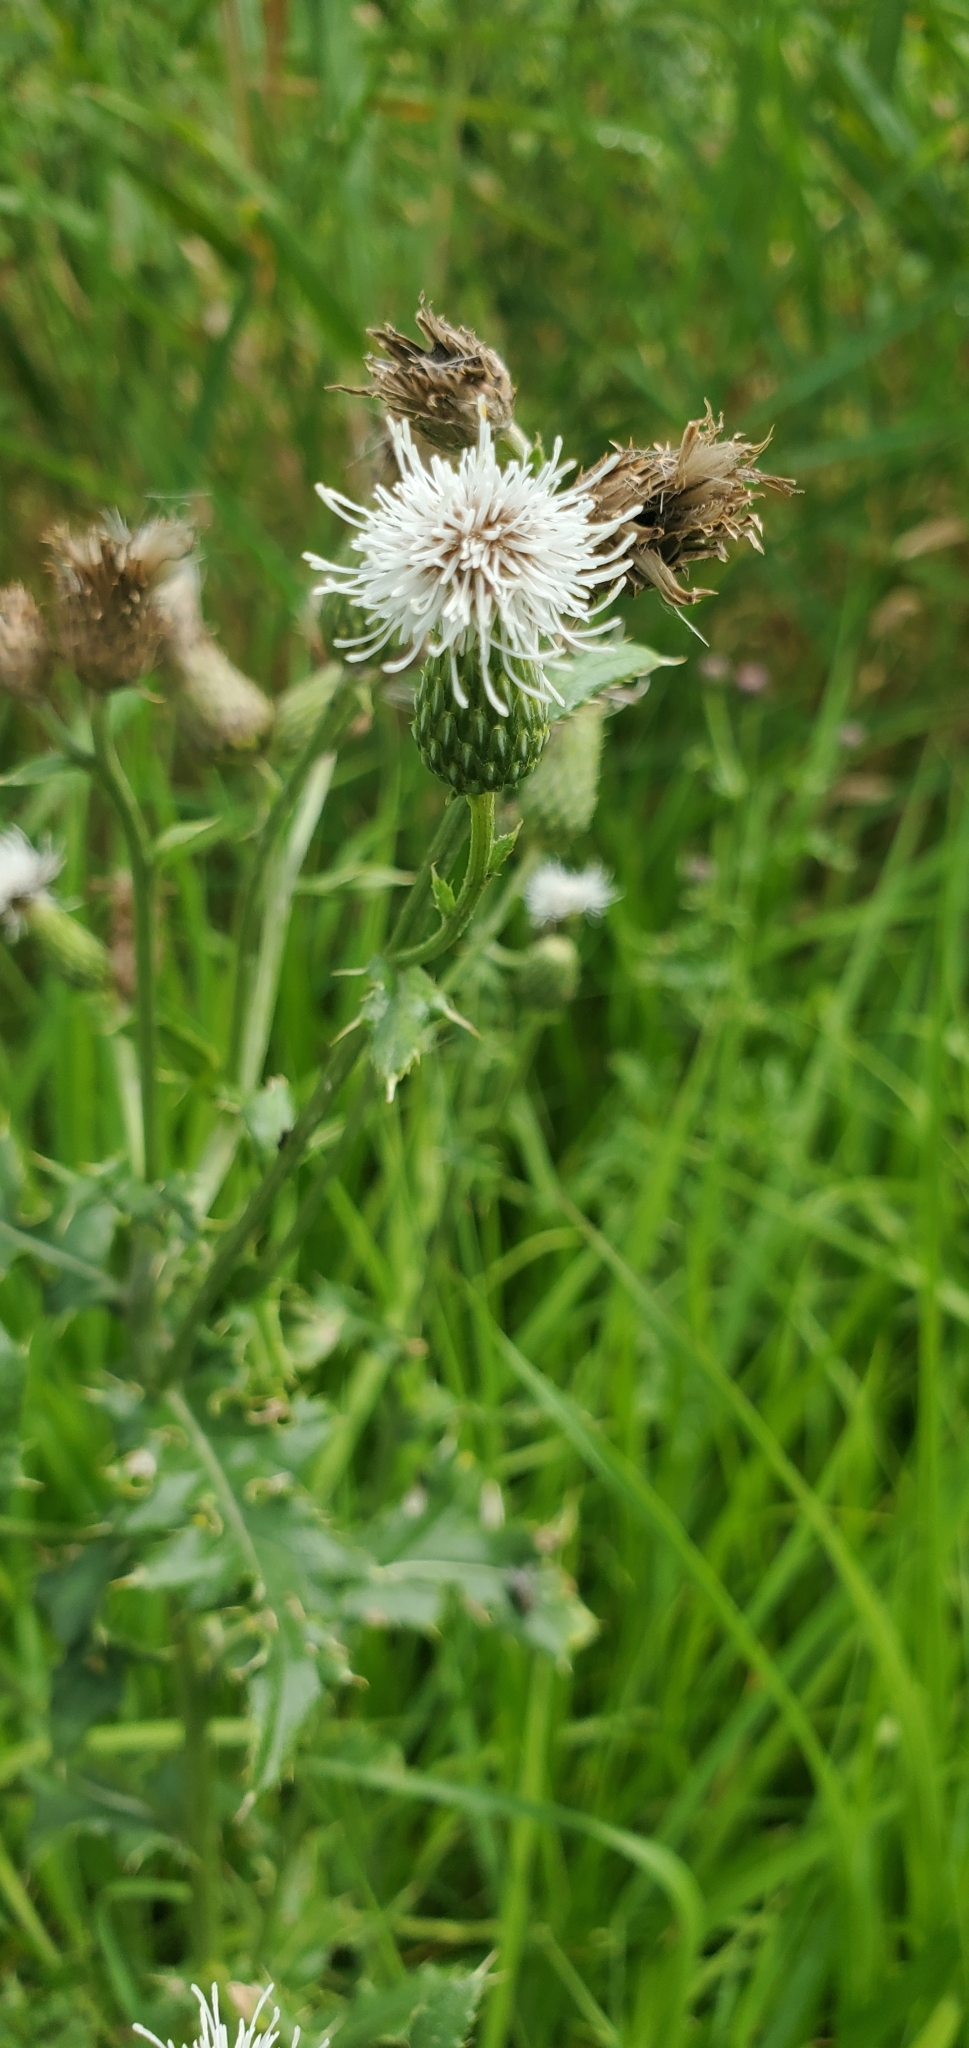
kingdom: Plantae
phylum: Tracheophyta
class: Magnoliopsida
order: Asterales
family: Asteraceae
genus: Cirsium
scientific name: Cirsium arvense
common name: Creeping thistle
